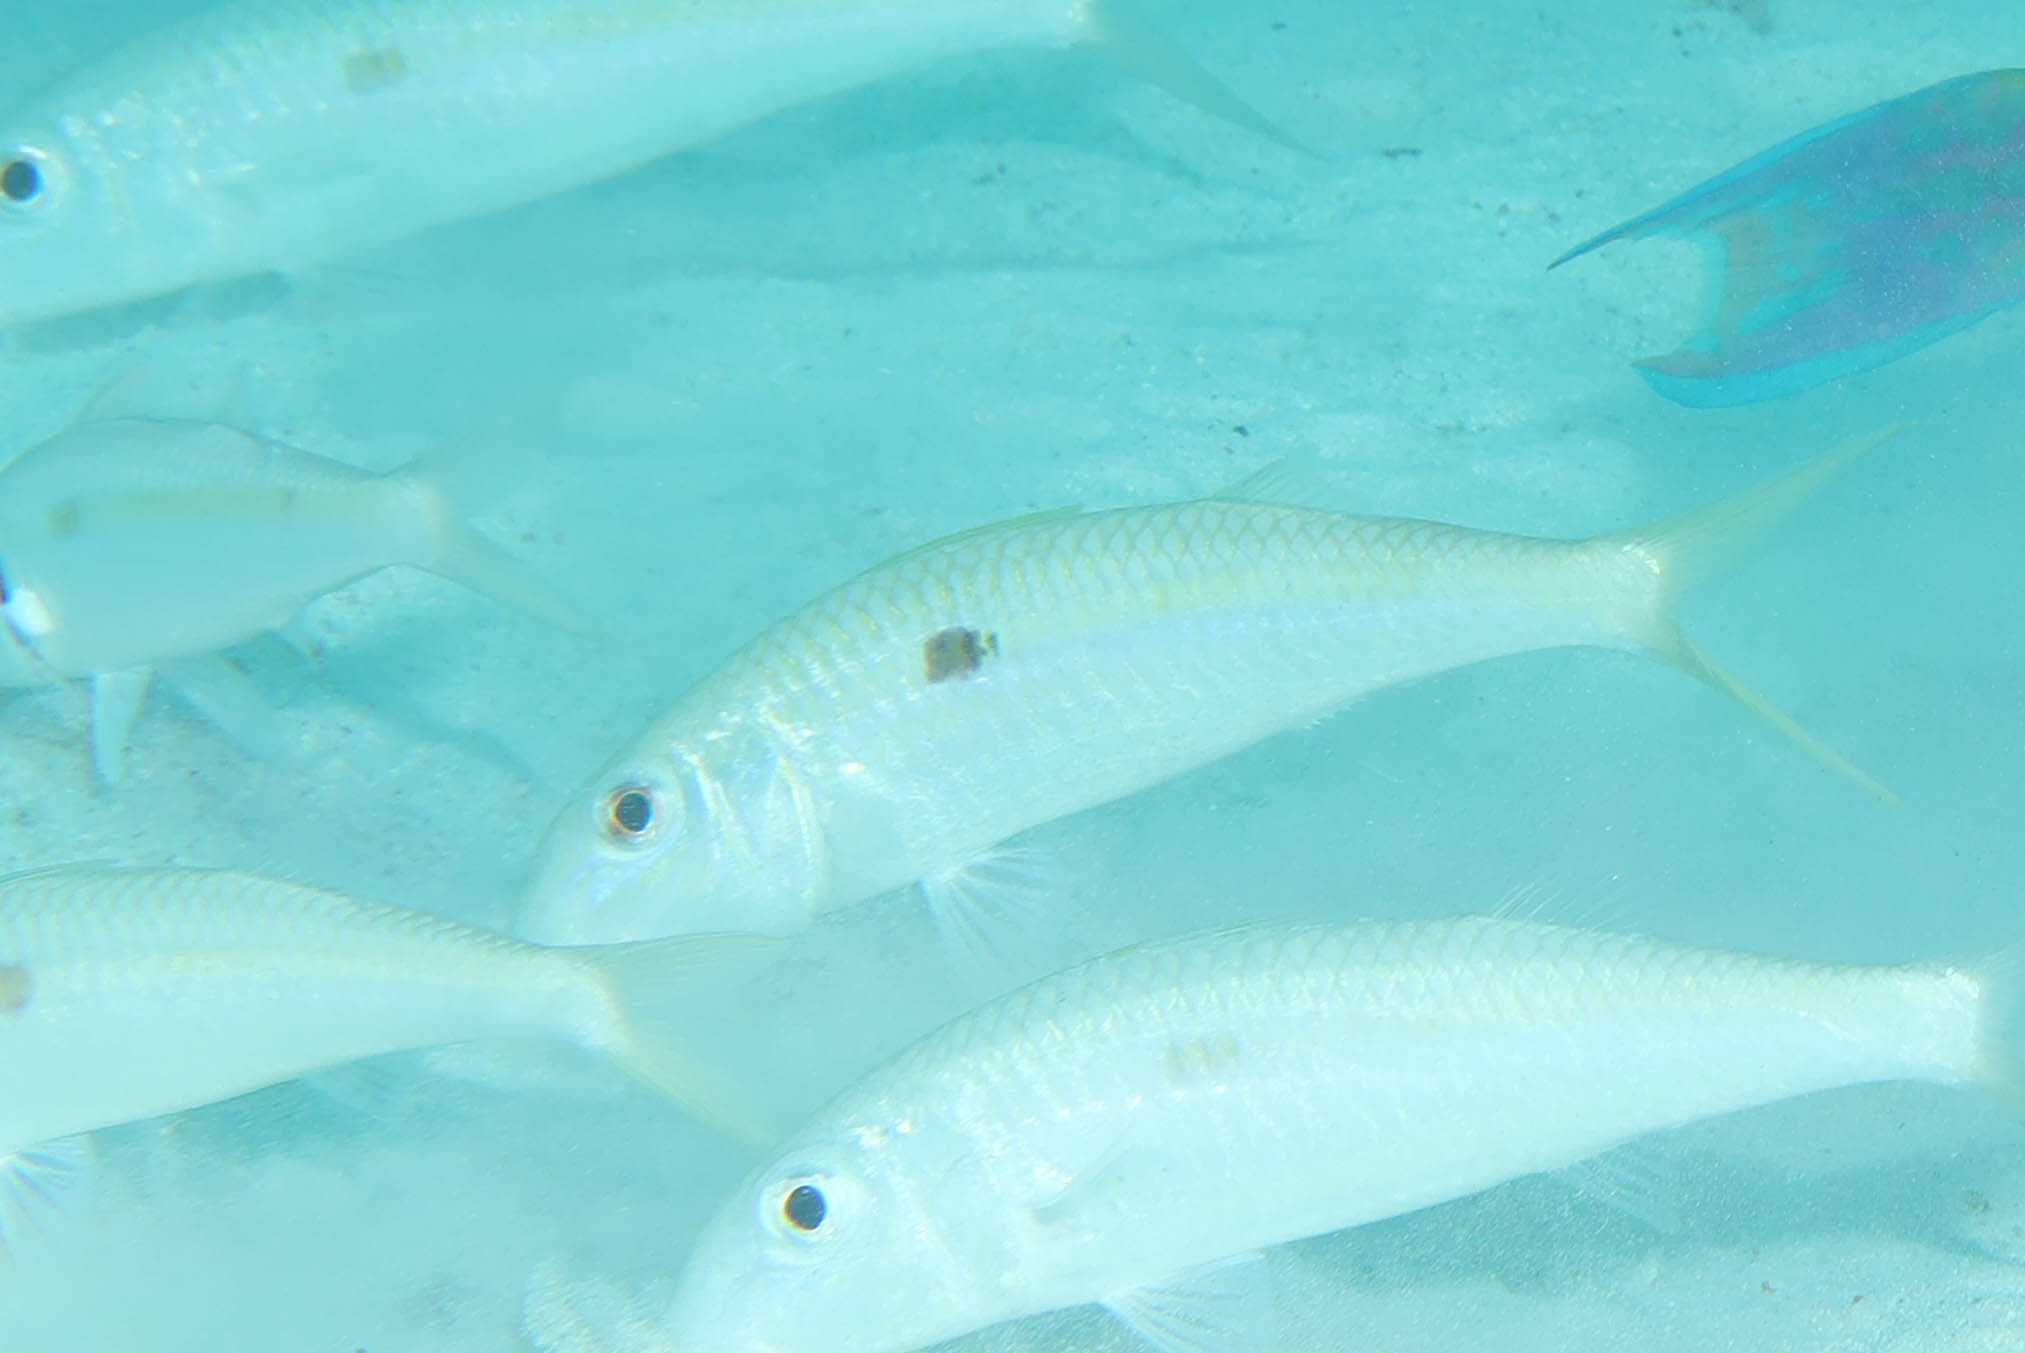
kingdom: Animalia
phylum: Chordata
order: Perciformes
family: Mullidae
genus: Mulloidichthys
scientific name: Mulloidichthys flavolineatus
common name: Yellowstripe goatfish
